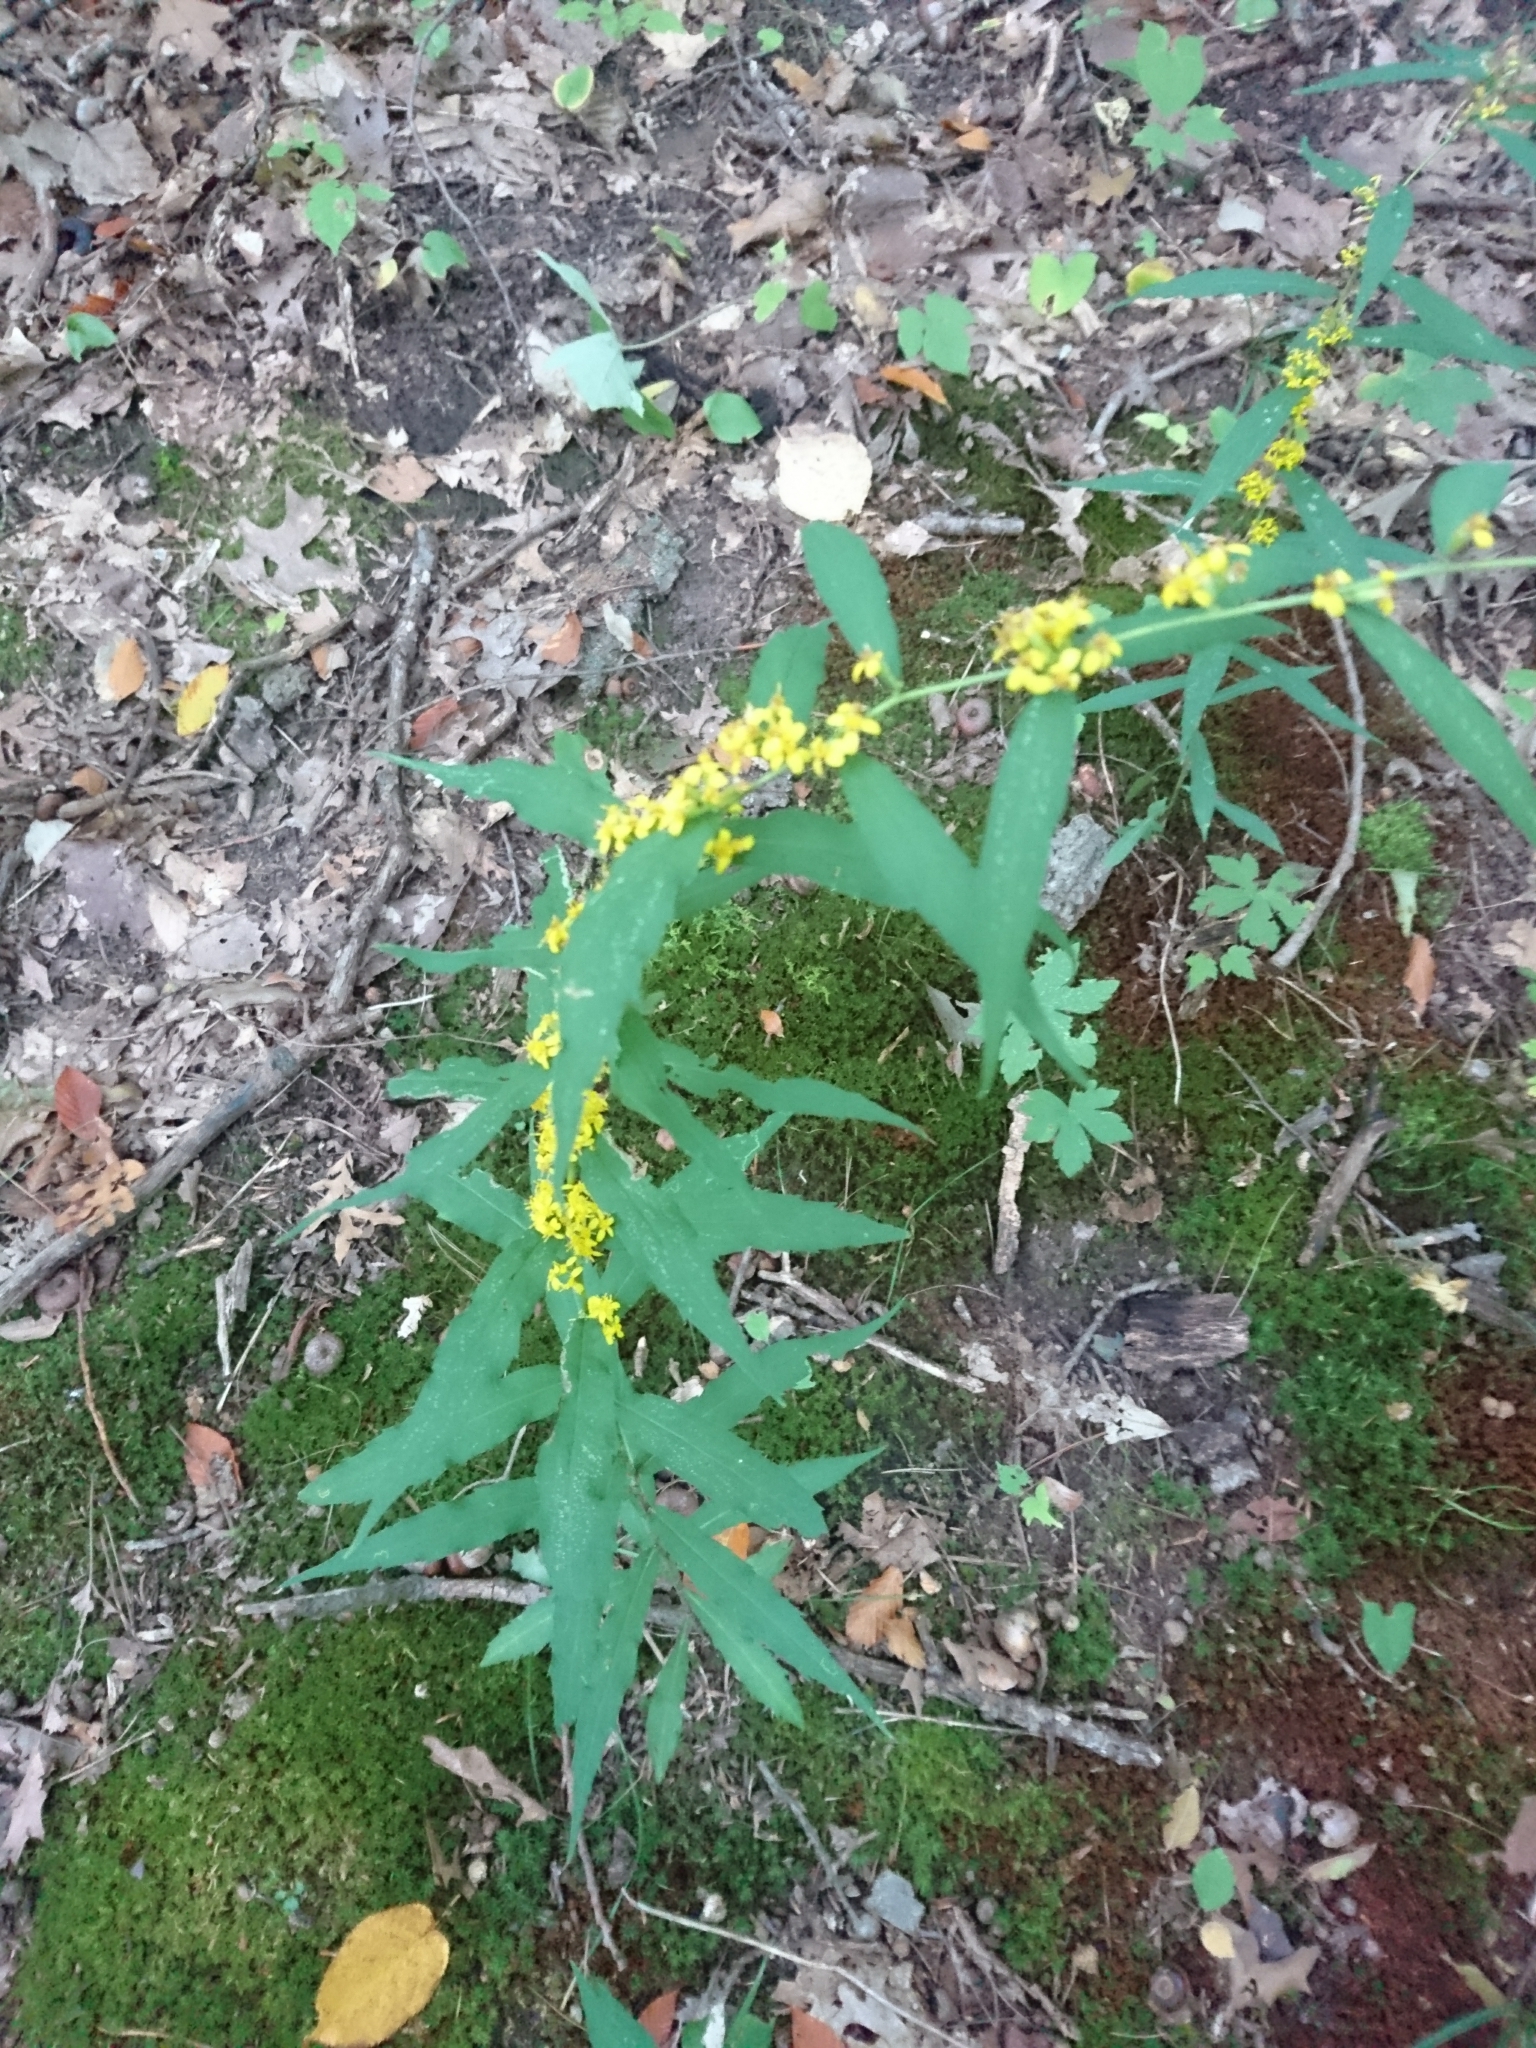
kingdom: Plantae
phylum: Tracheophyta
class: Magnoliopsida
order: Asterales
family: Asteraceae
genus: Solidago
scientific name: Solidago caesia
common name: Woodland goldenrod
